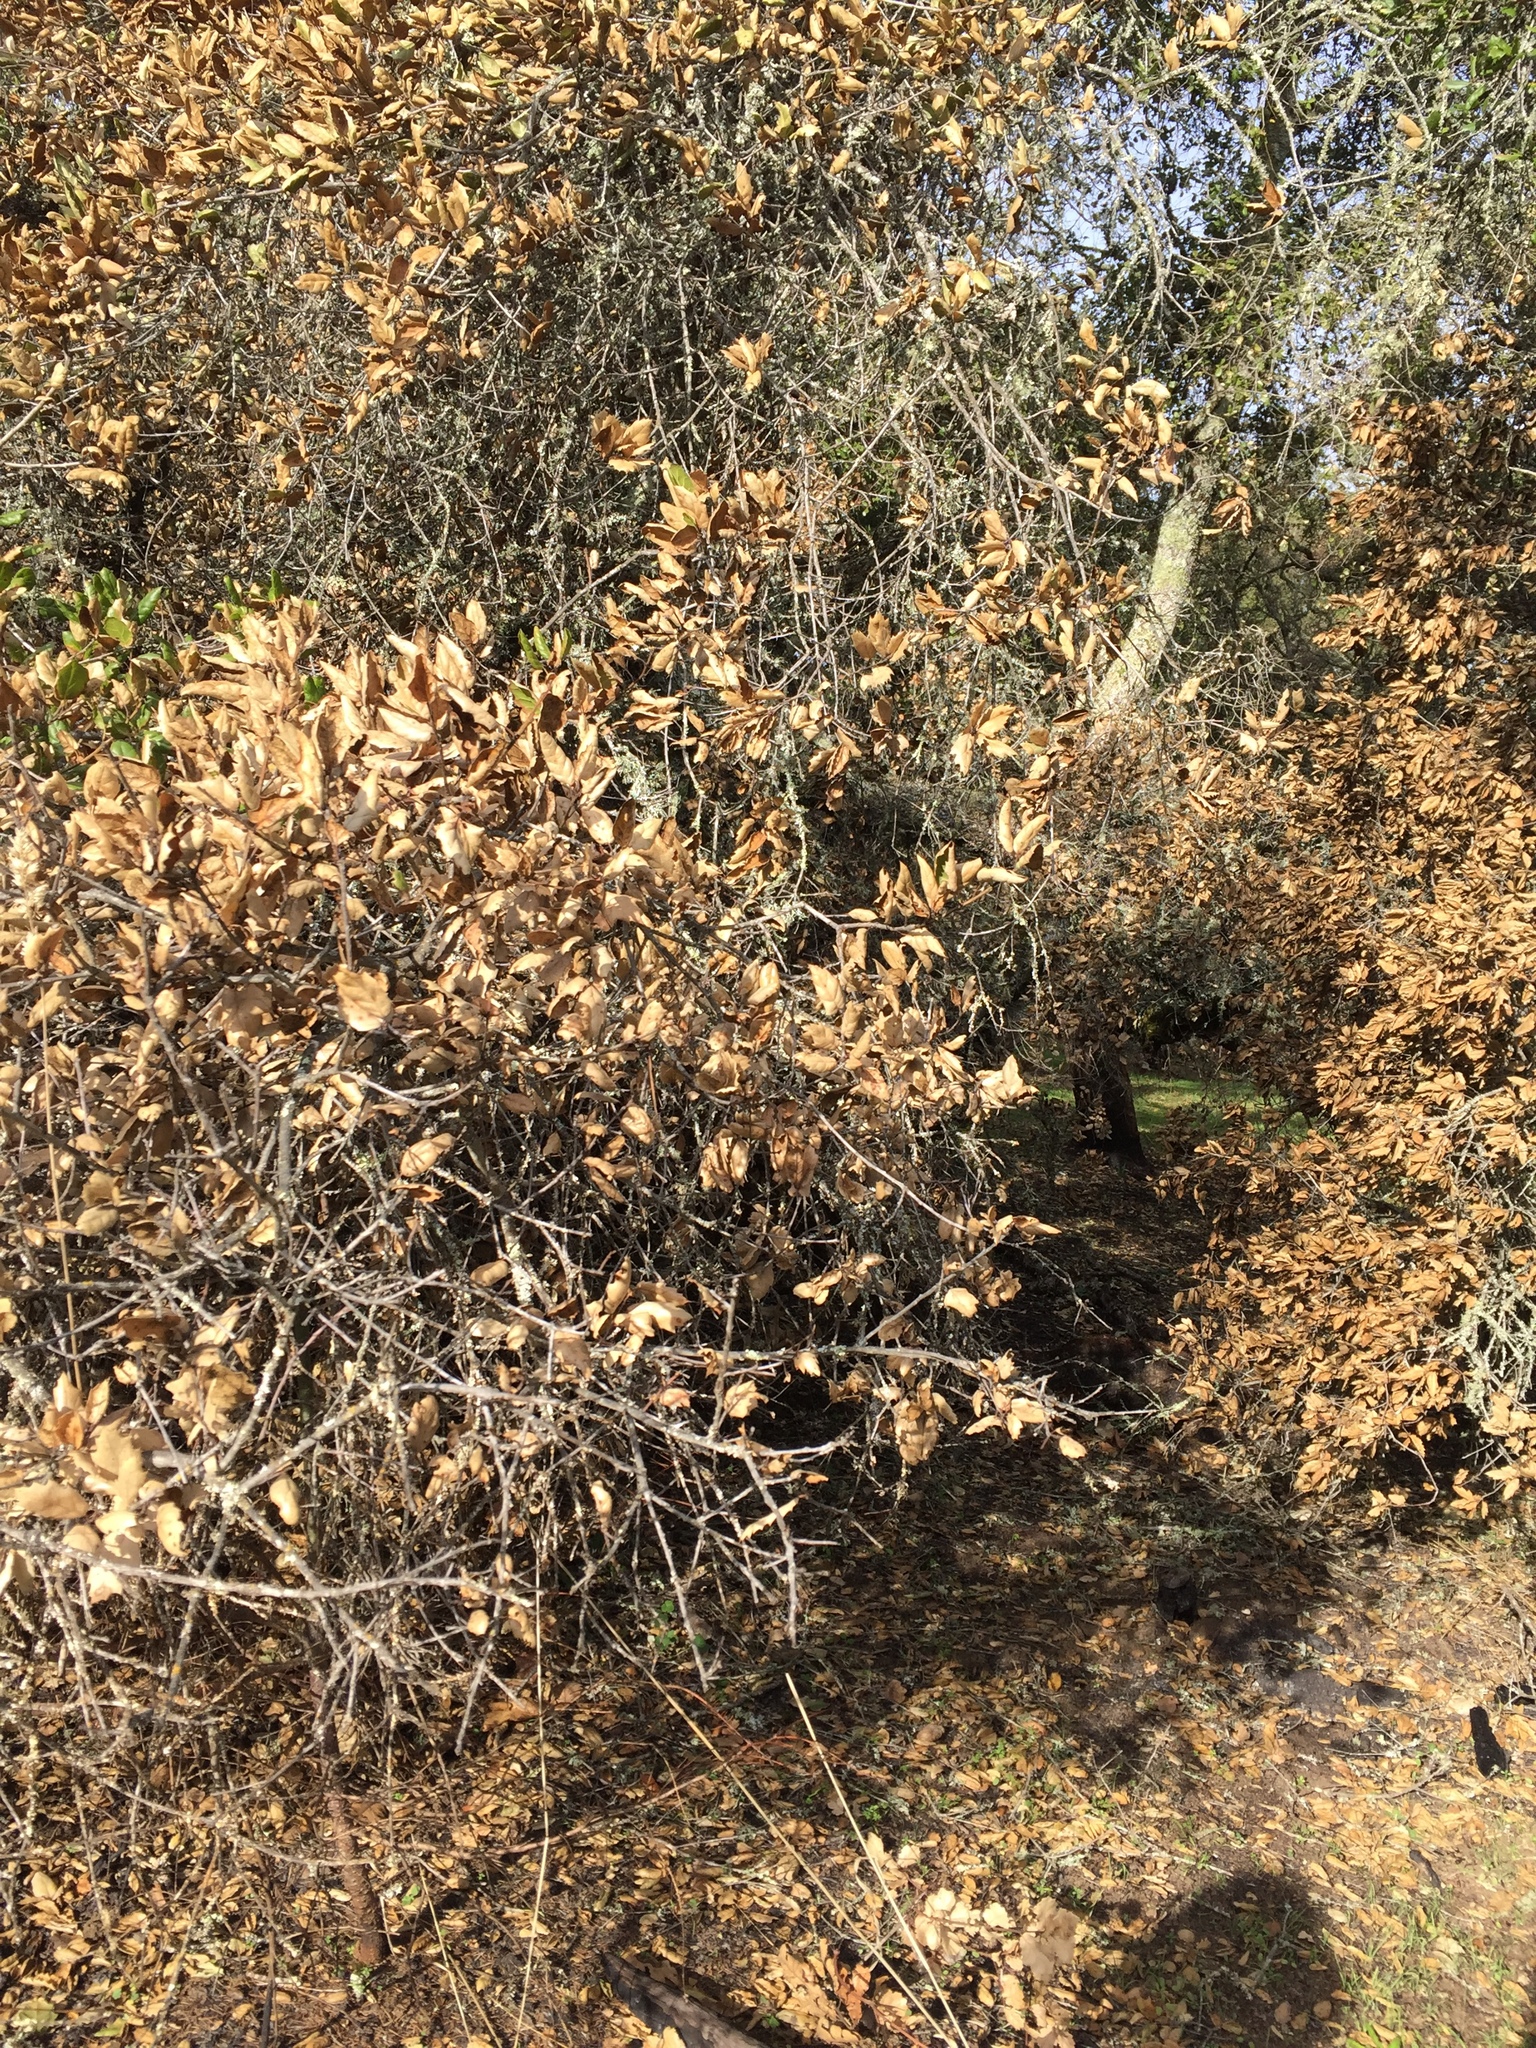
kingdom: Plantae
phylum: Tracheophyta
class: Magnoliopsida
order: Fagales
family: Fagaceae
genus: Quercus
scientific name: Quercus agrifolia
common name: California live oak
